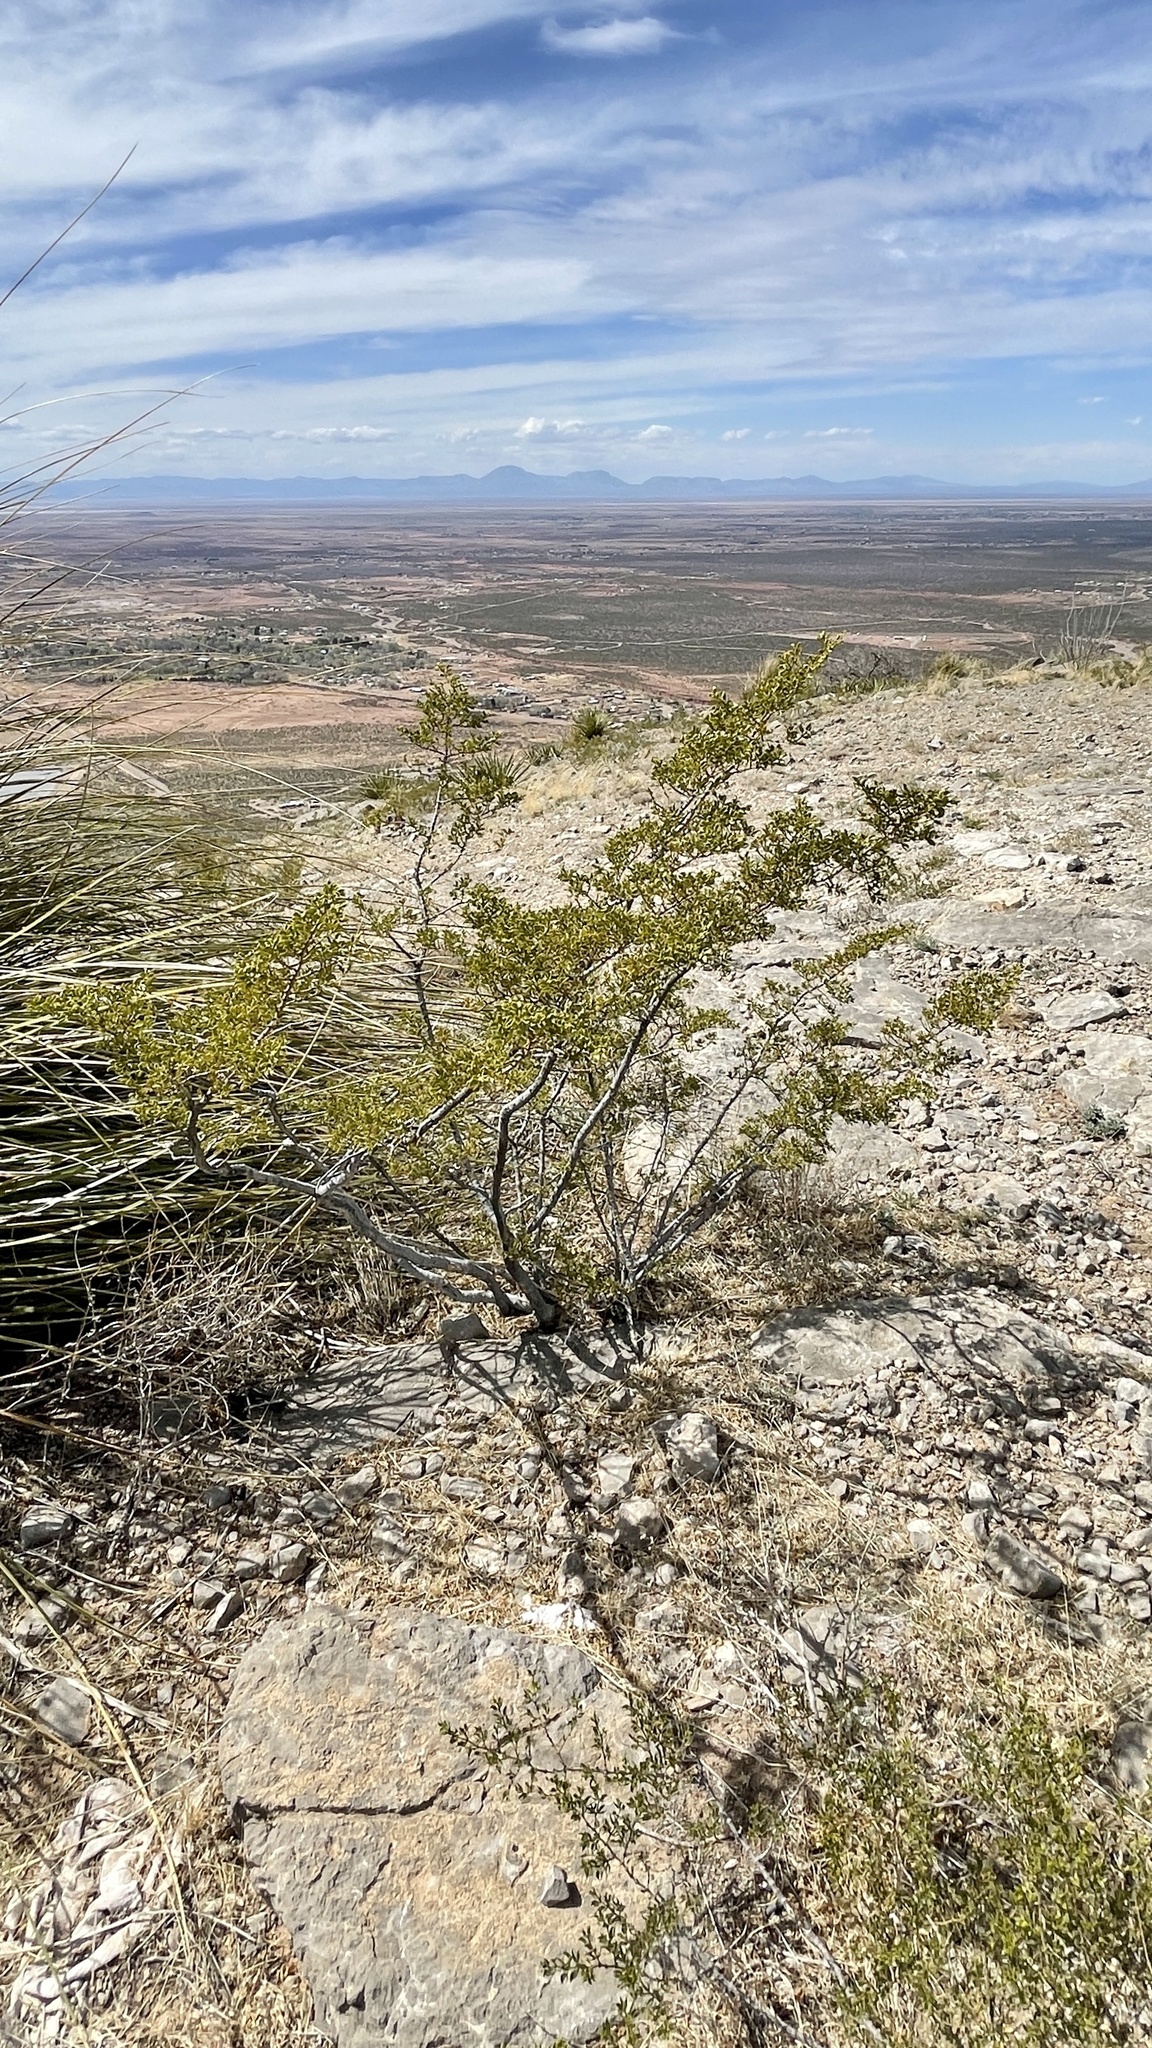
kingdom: Plantae
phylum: Tracheophyta
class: Magnoliopsida
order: Zygophyllales
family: Zygophyllaceae
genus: Larrea
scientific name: Larrea tridentata
